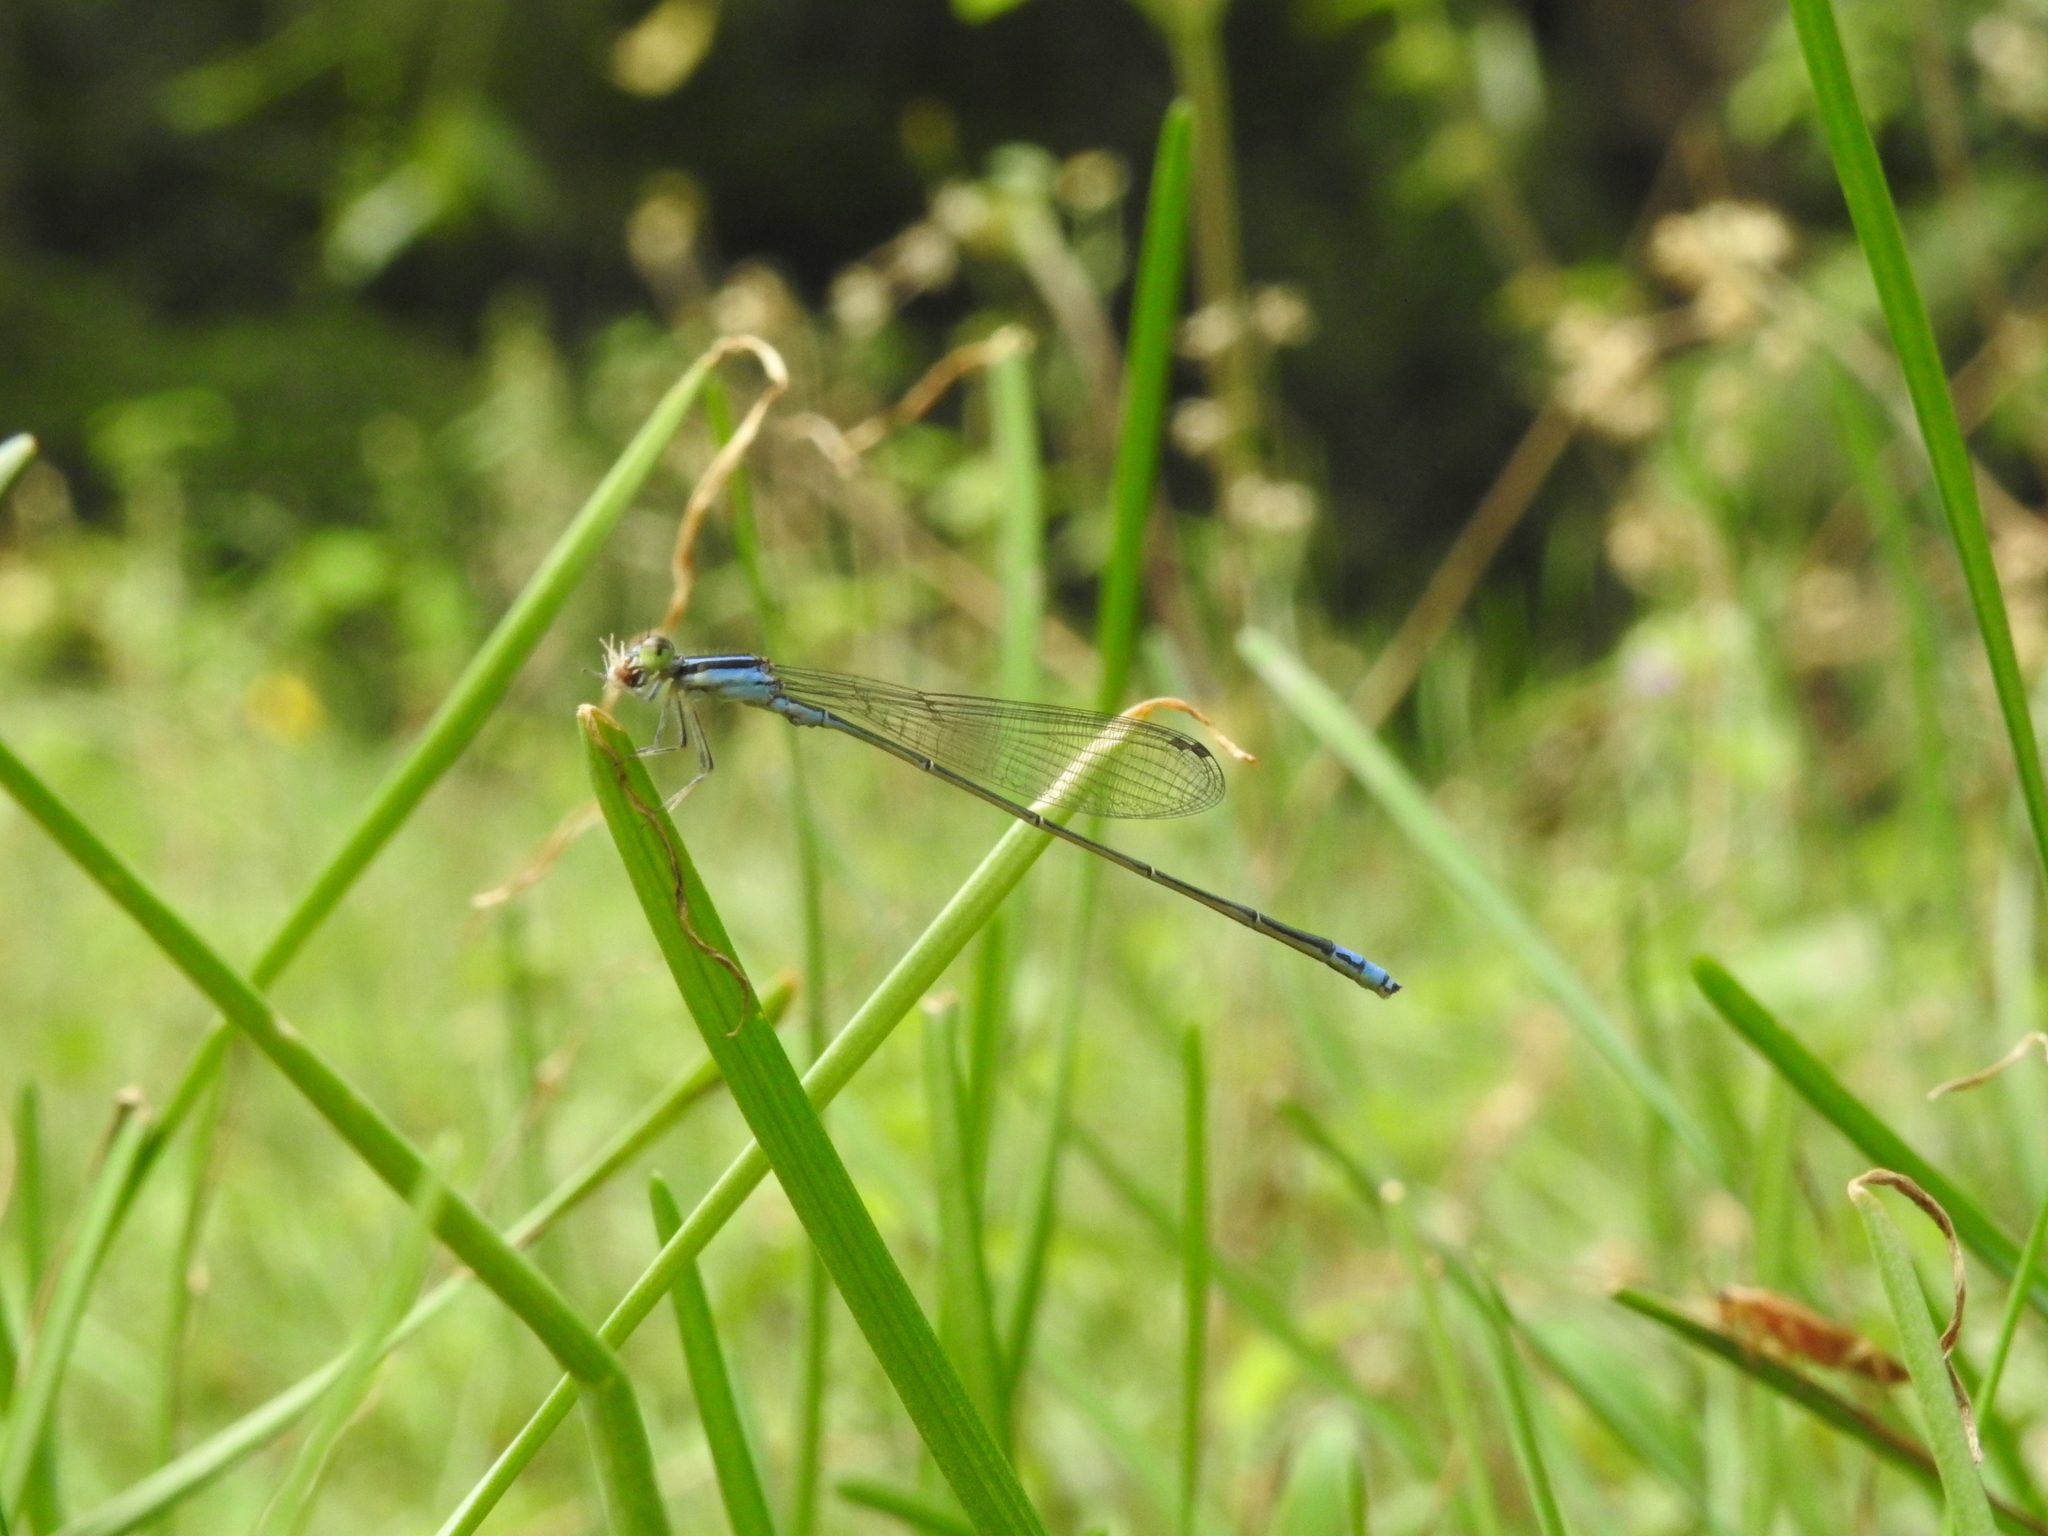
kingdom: Animalia
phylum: Arthropoda
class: Insecta
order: Odonata
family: Coenagrionidae
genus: Aciagrion
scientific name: Aciagrion approximans
